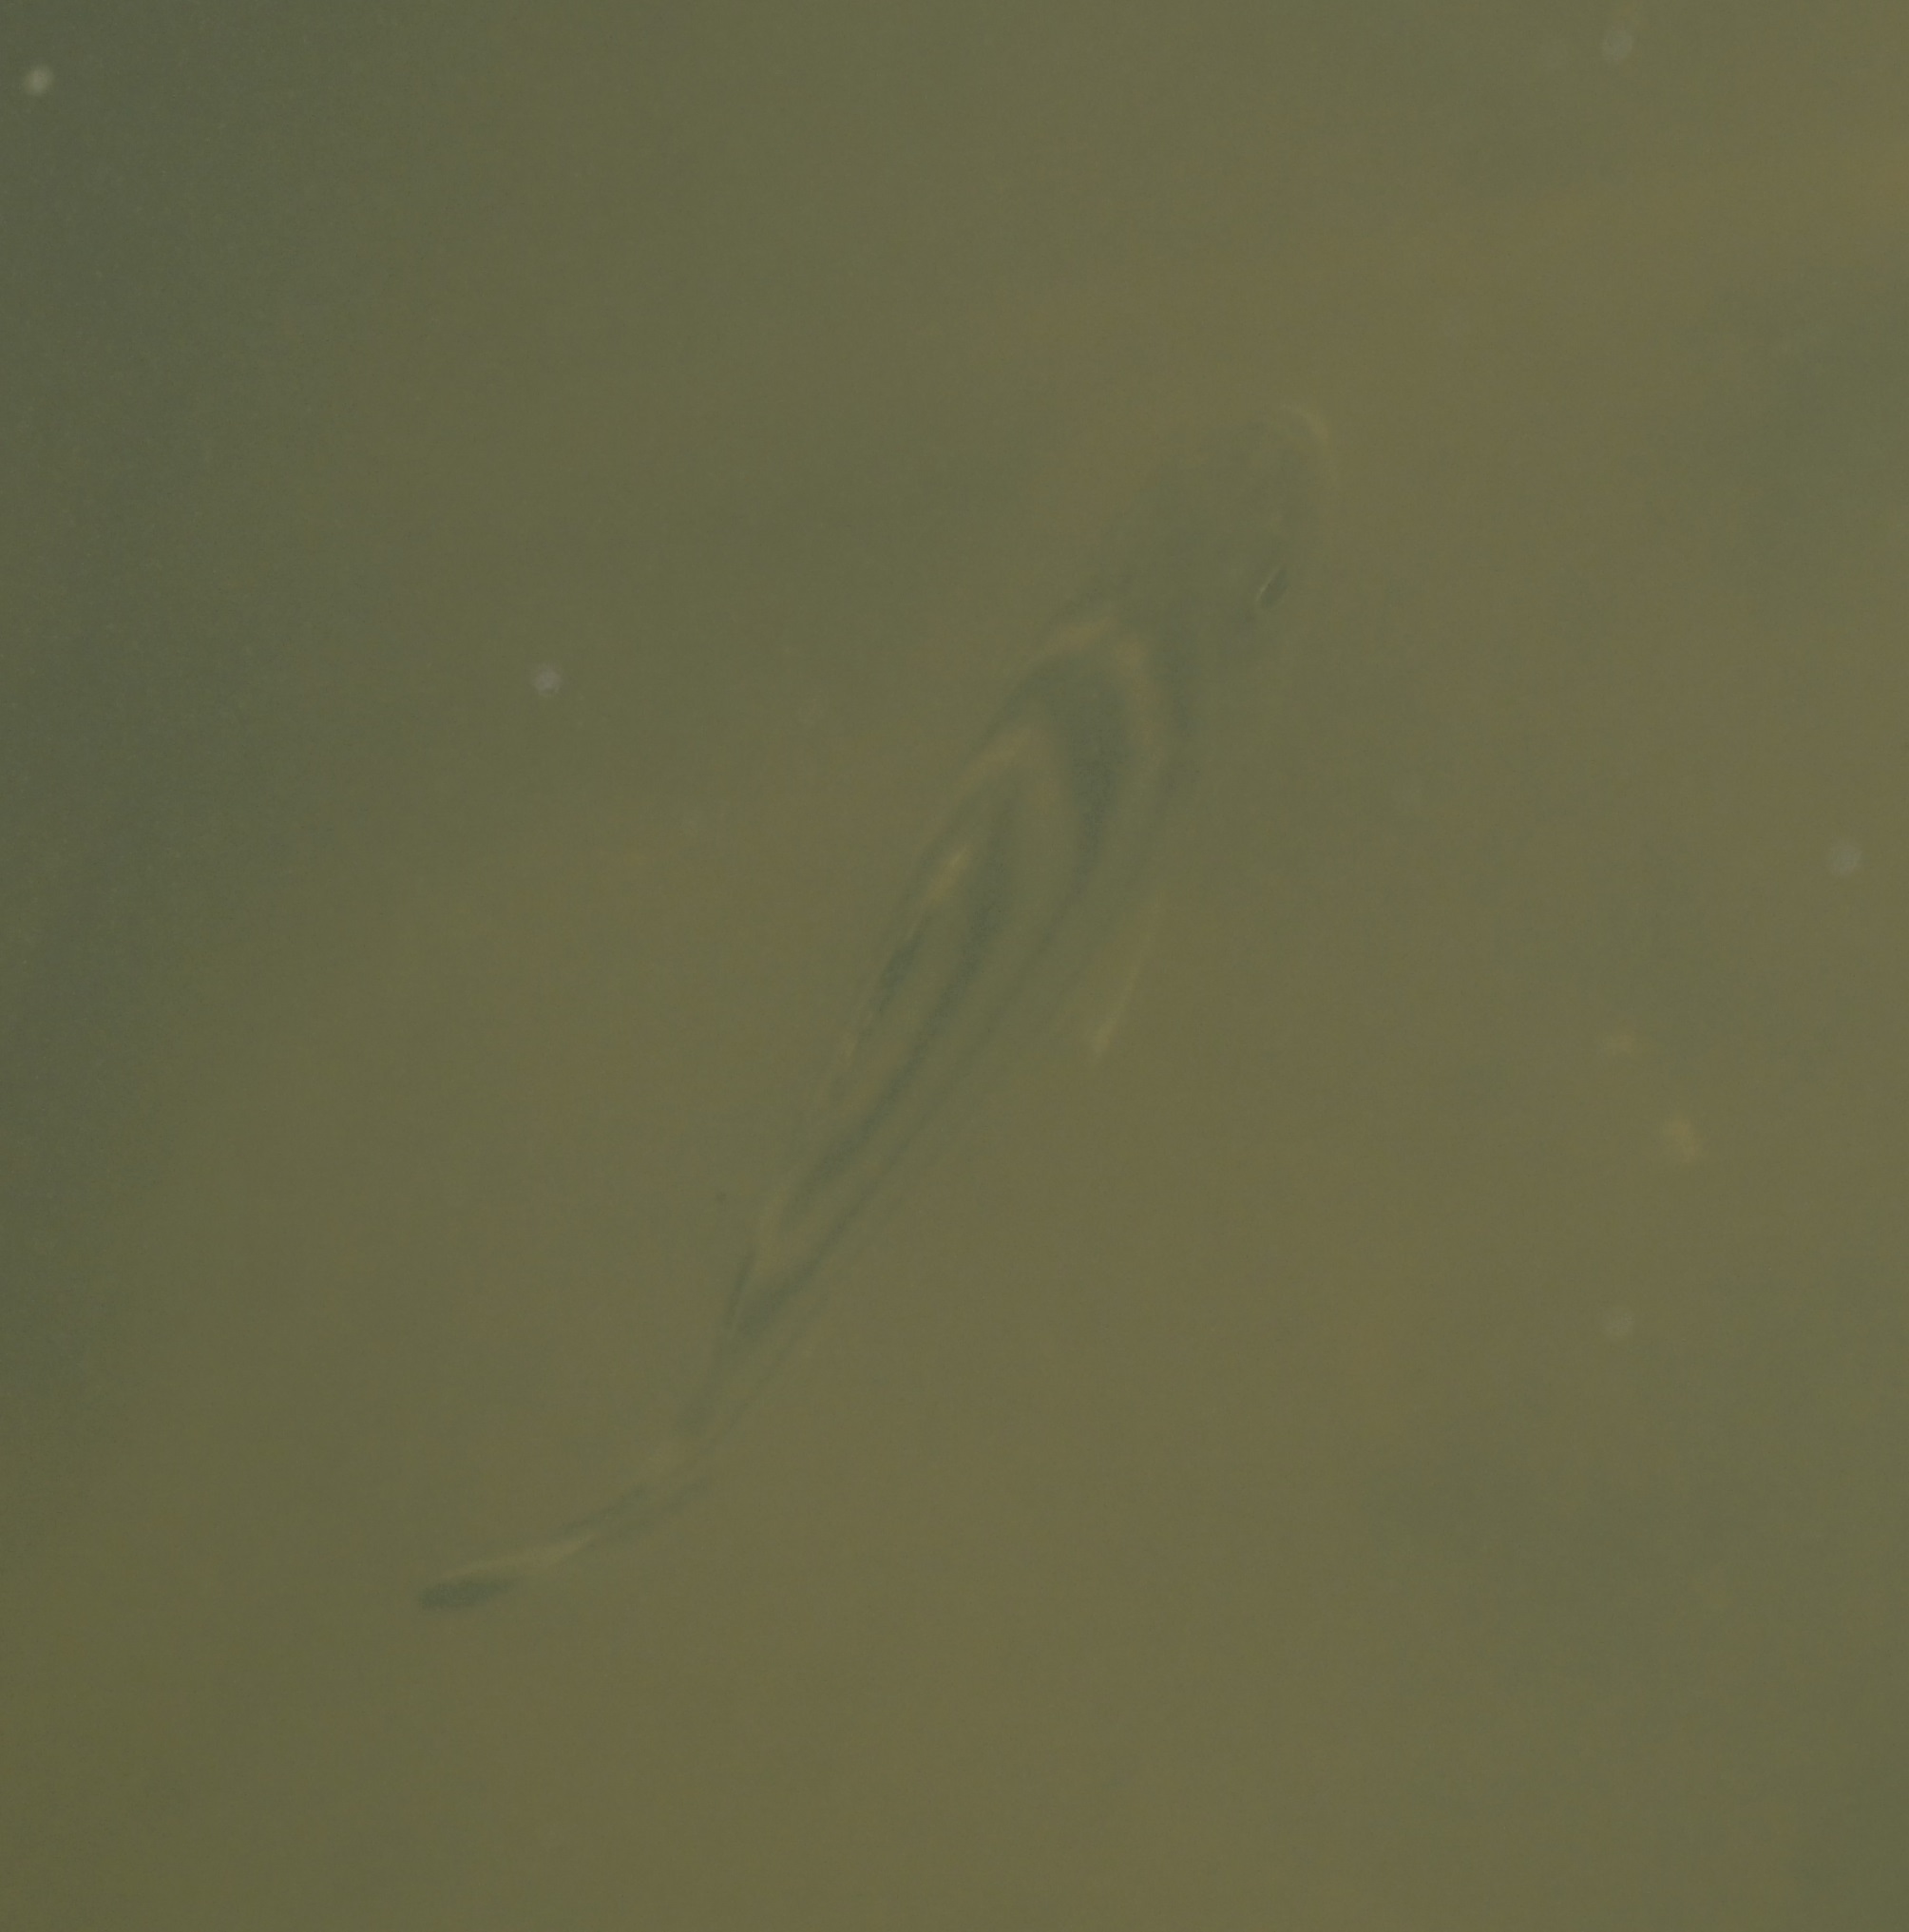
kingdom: Animalia
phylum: Chordata
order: Perciformes
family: Terapontidae
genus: Terapon
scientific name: Terapon jarbua
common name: Jarbua terapon
